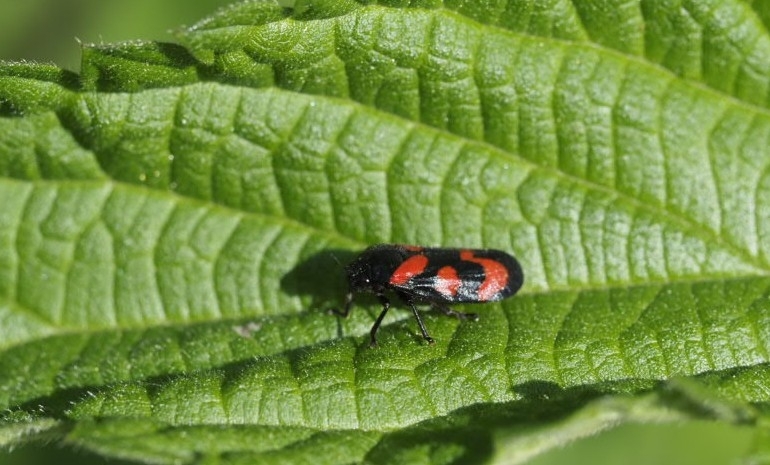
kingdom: Animalia
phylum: Arthropoda
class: Insecta
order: Hemiptera
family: Cercopidae
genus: Cercopis
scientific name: Cercopis vulnerata
